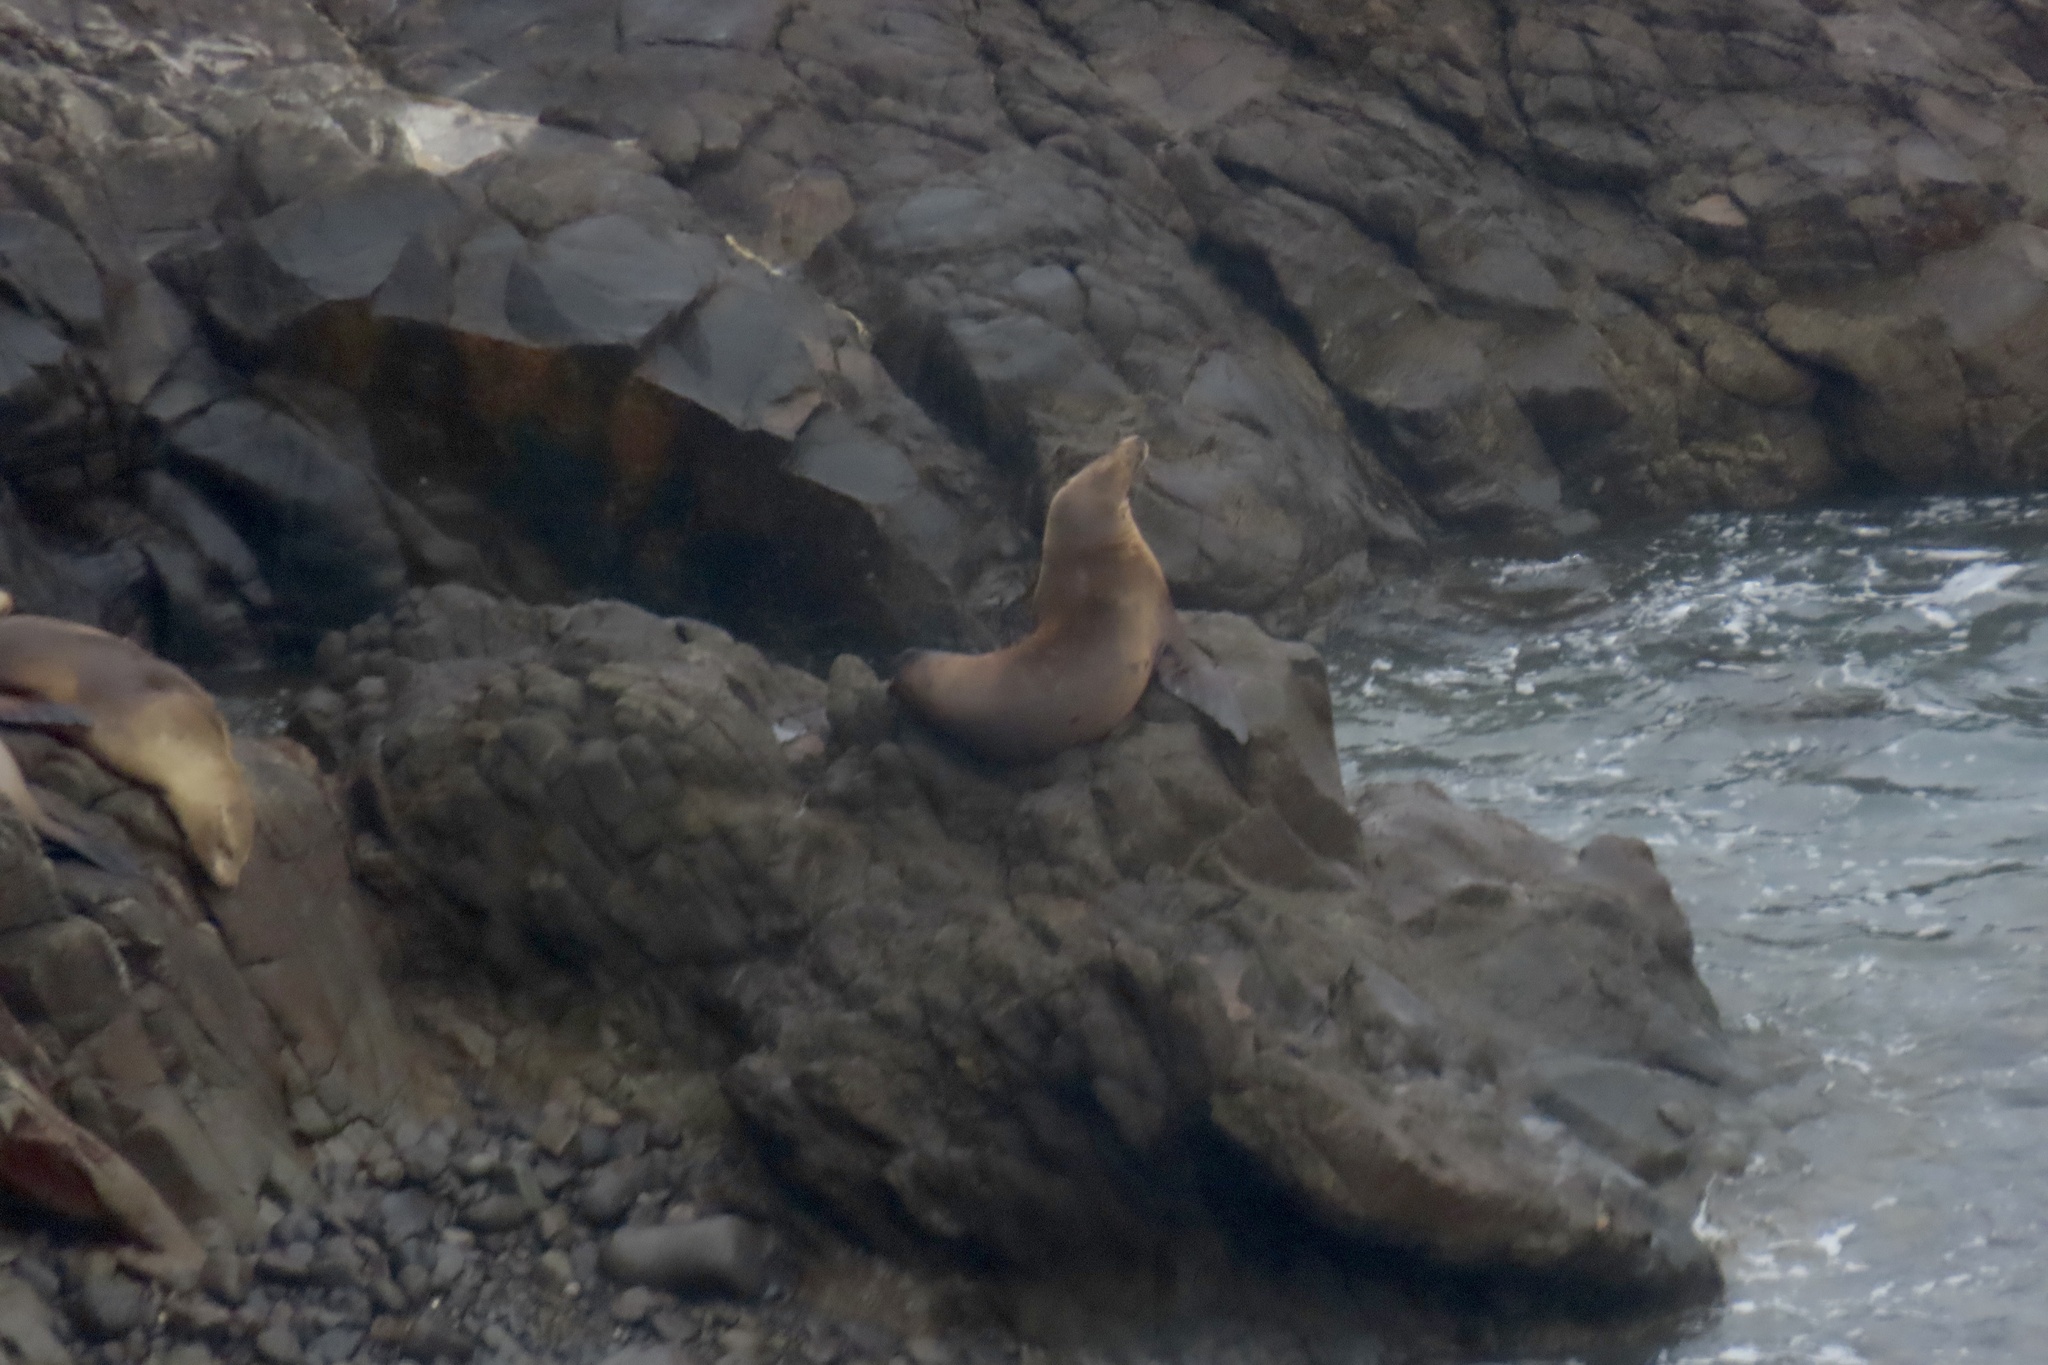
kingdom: Animalia
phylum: Chordata
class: Mammalia
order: Carnivora
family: Otariidae
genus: Zalophus
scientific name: Zalophus californianus
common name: California sea lion
